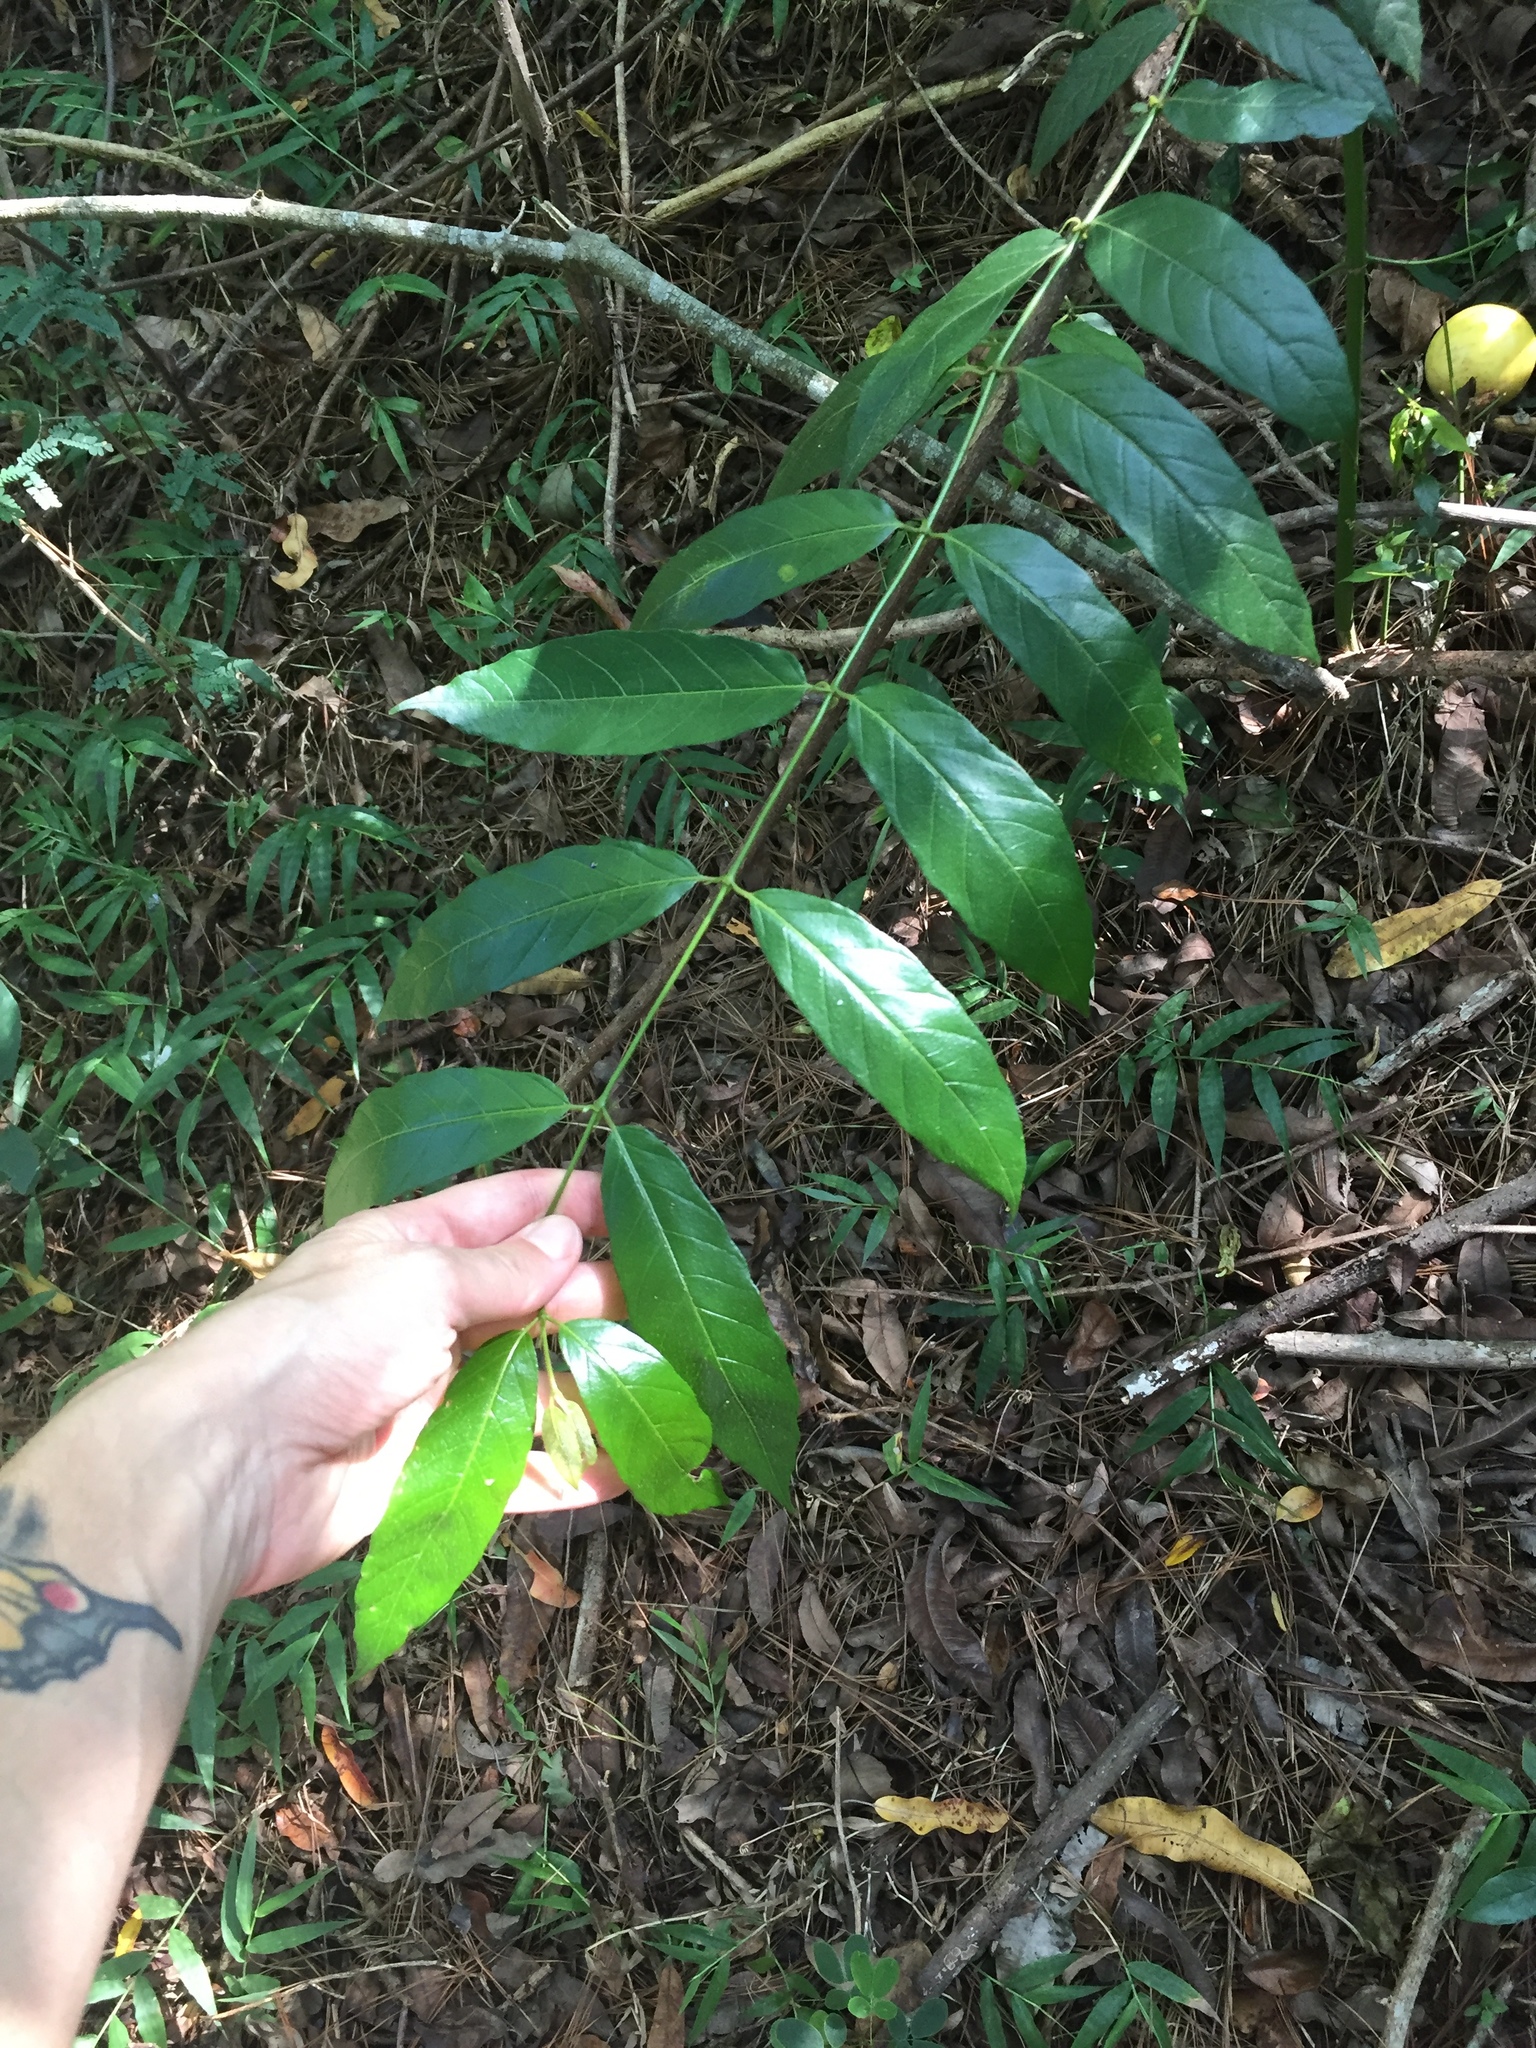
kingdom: Plantae
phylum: Tracheophyta
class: Magnoliopsida
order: Gentianales
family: Rubiaceae
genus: Kraussia
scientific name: Kraussia floribunda
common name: Rhino-coffee
